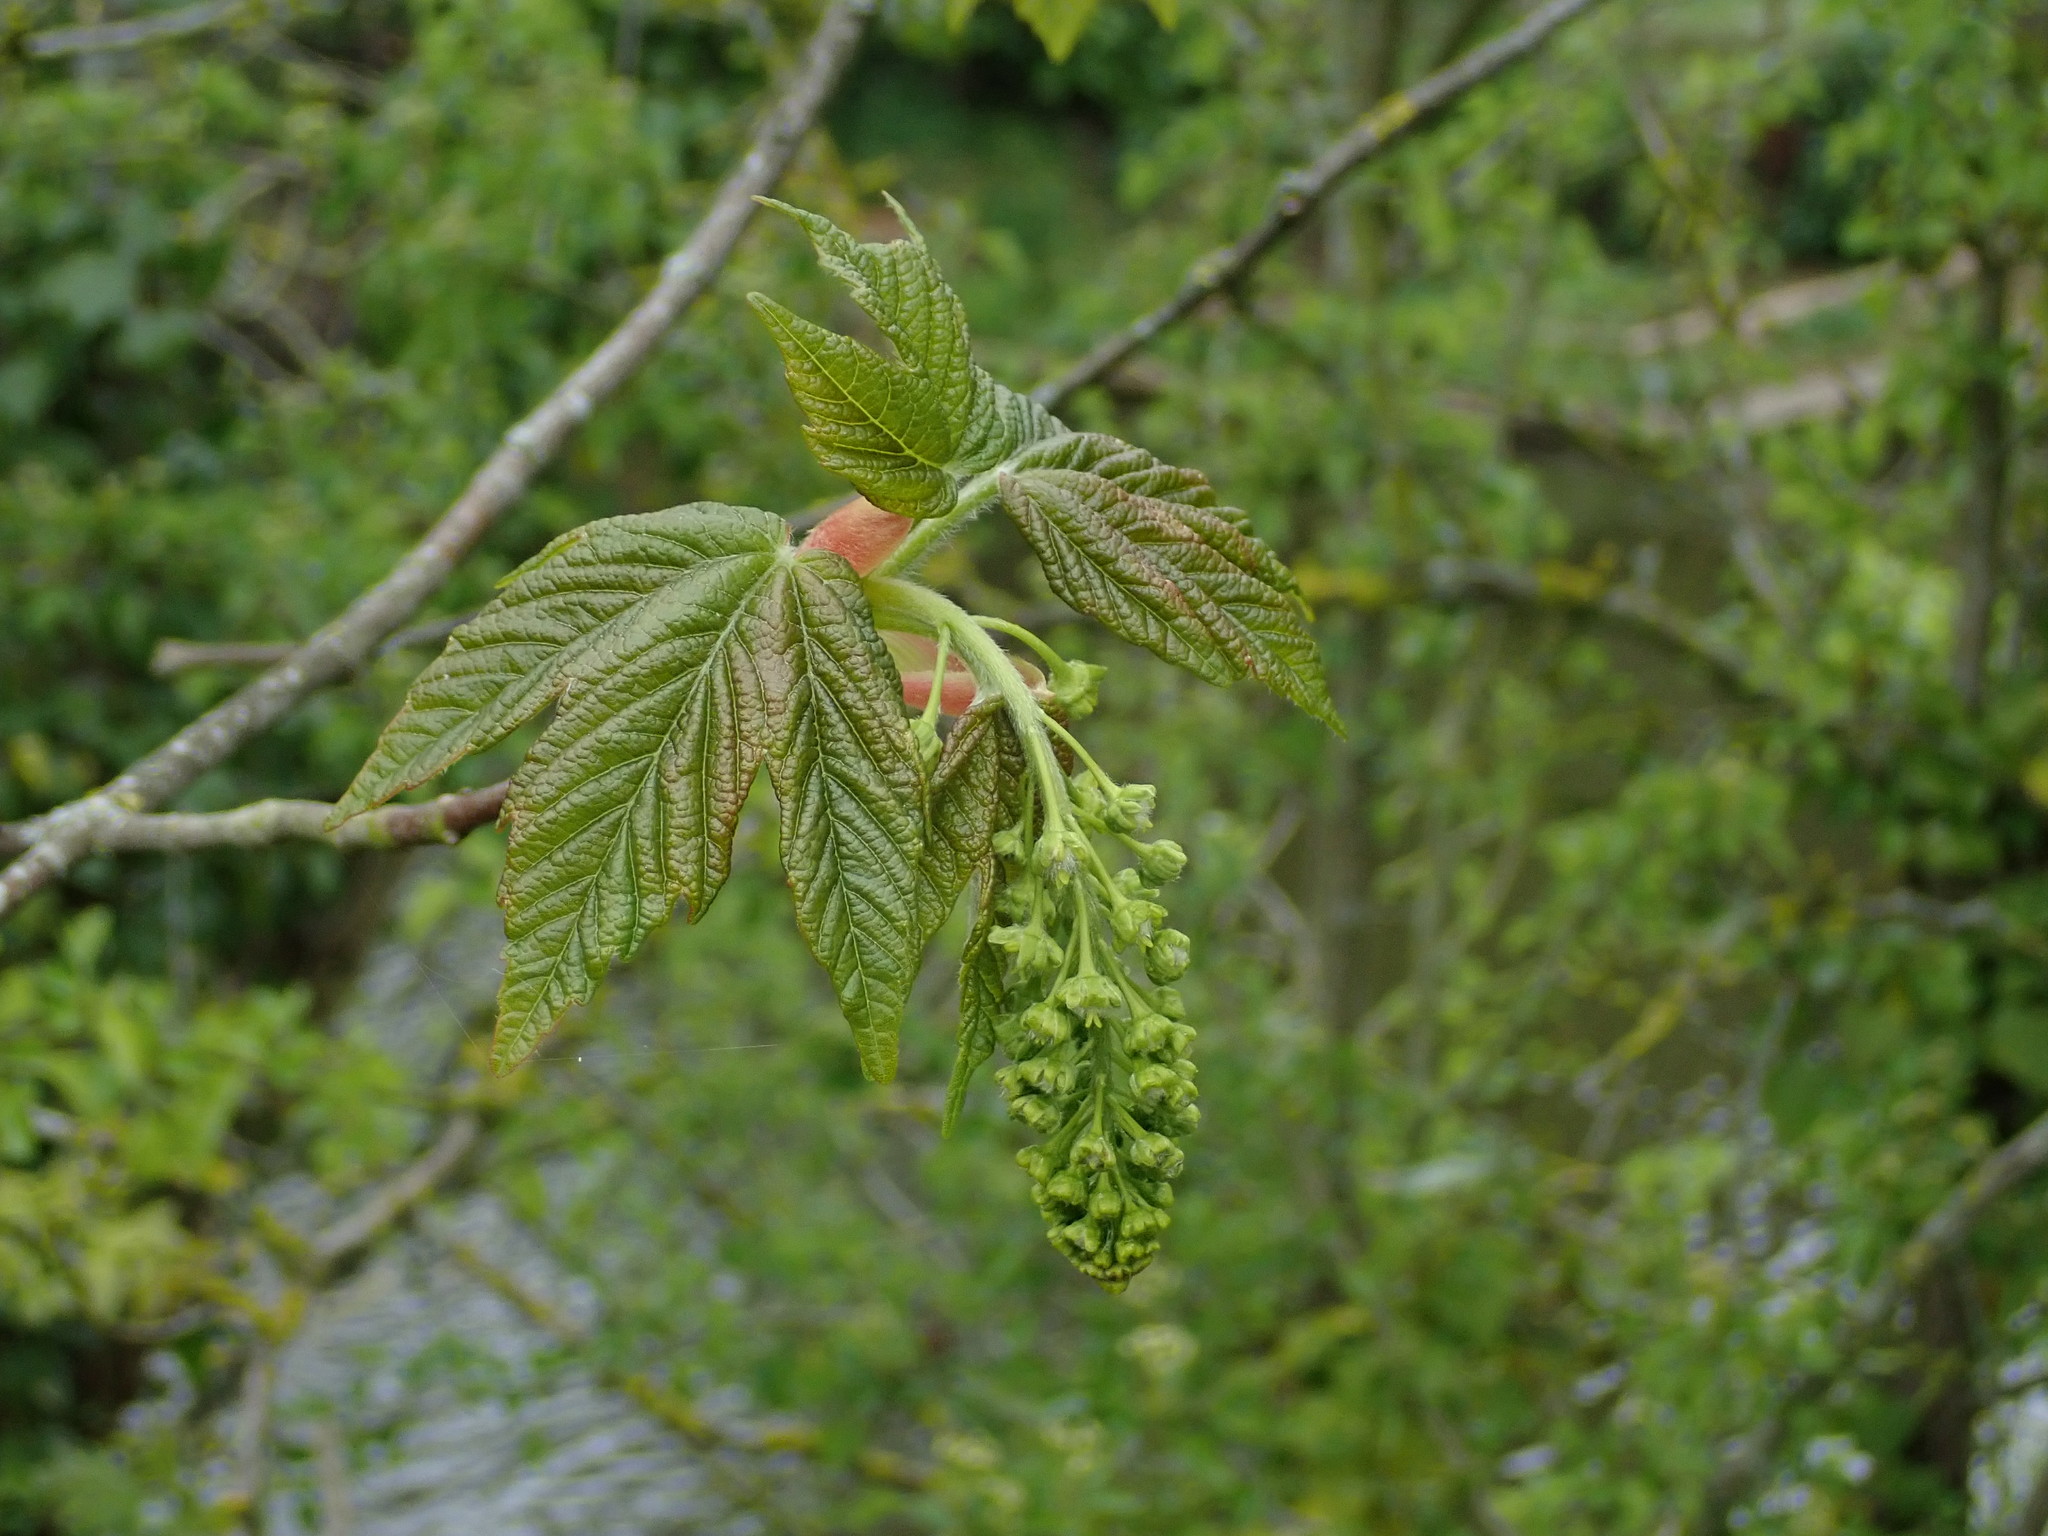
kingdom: Plantae
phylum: Tracheophyta
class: Magnoliopsida
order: Sapindales
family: Sapindaceae
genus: Acer
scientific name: Acer pseudoplatanus
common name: Sycamore
